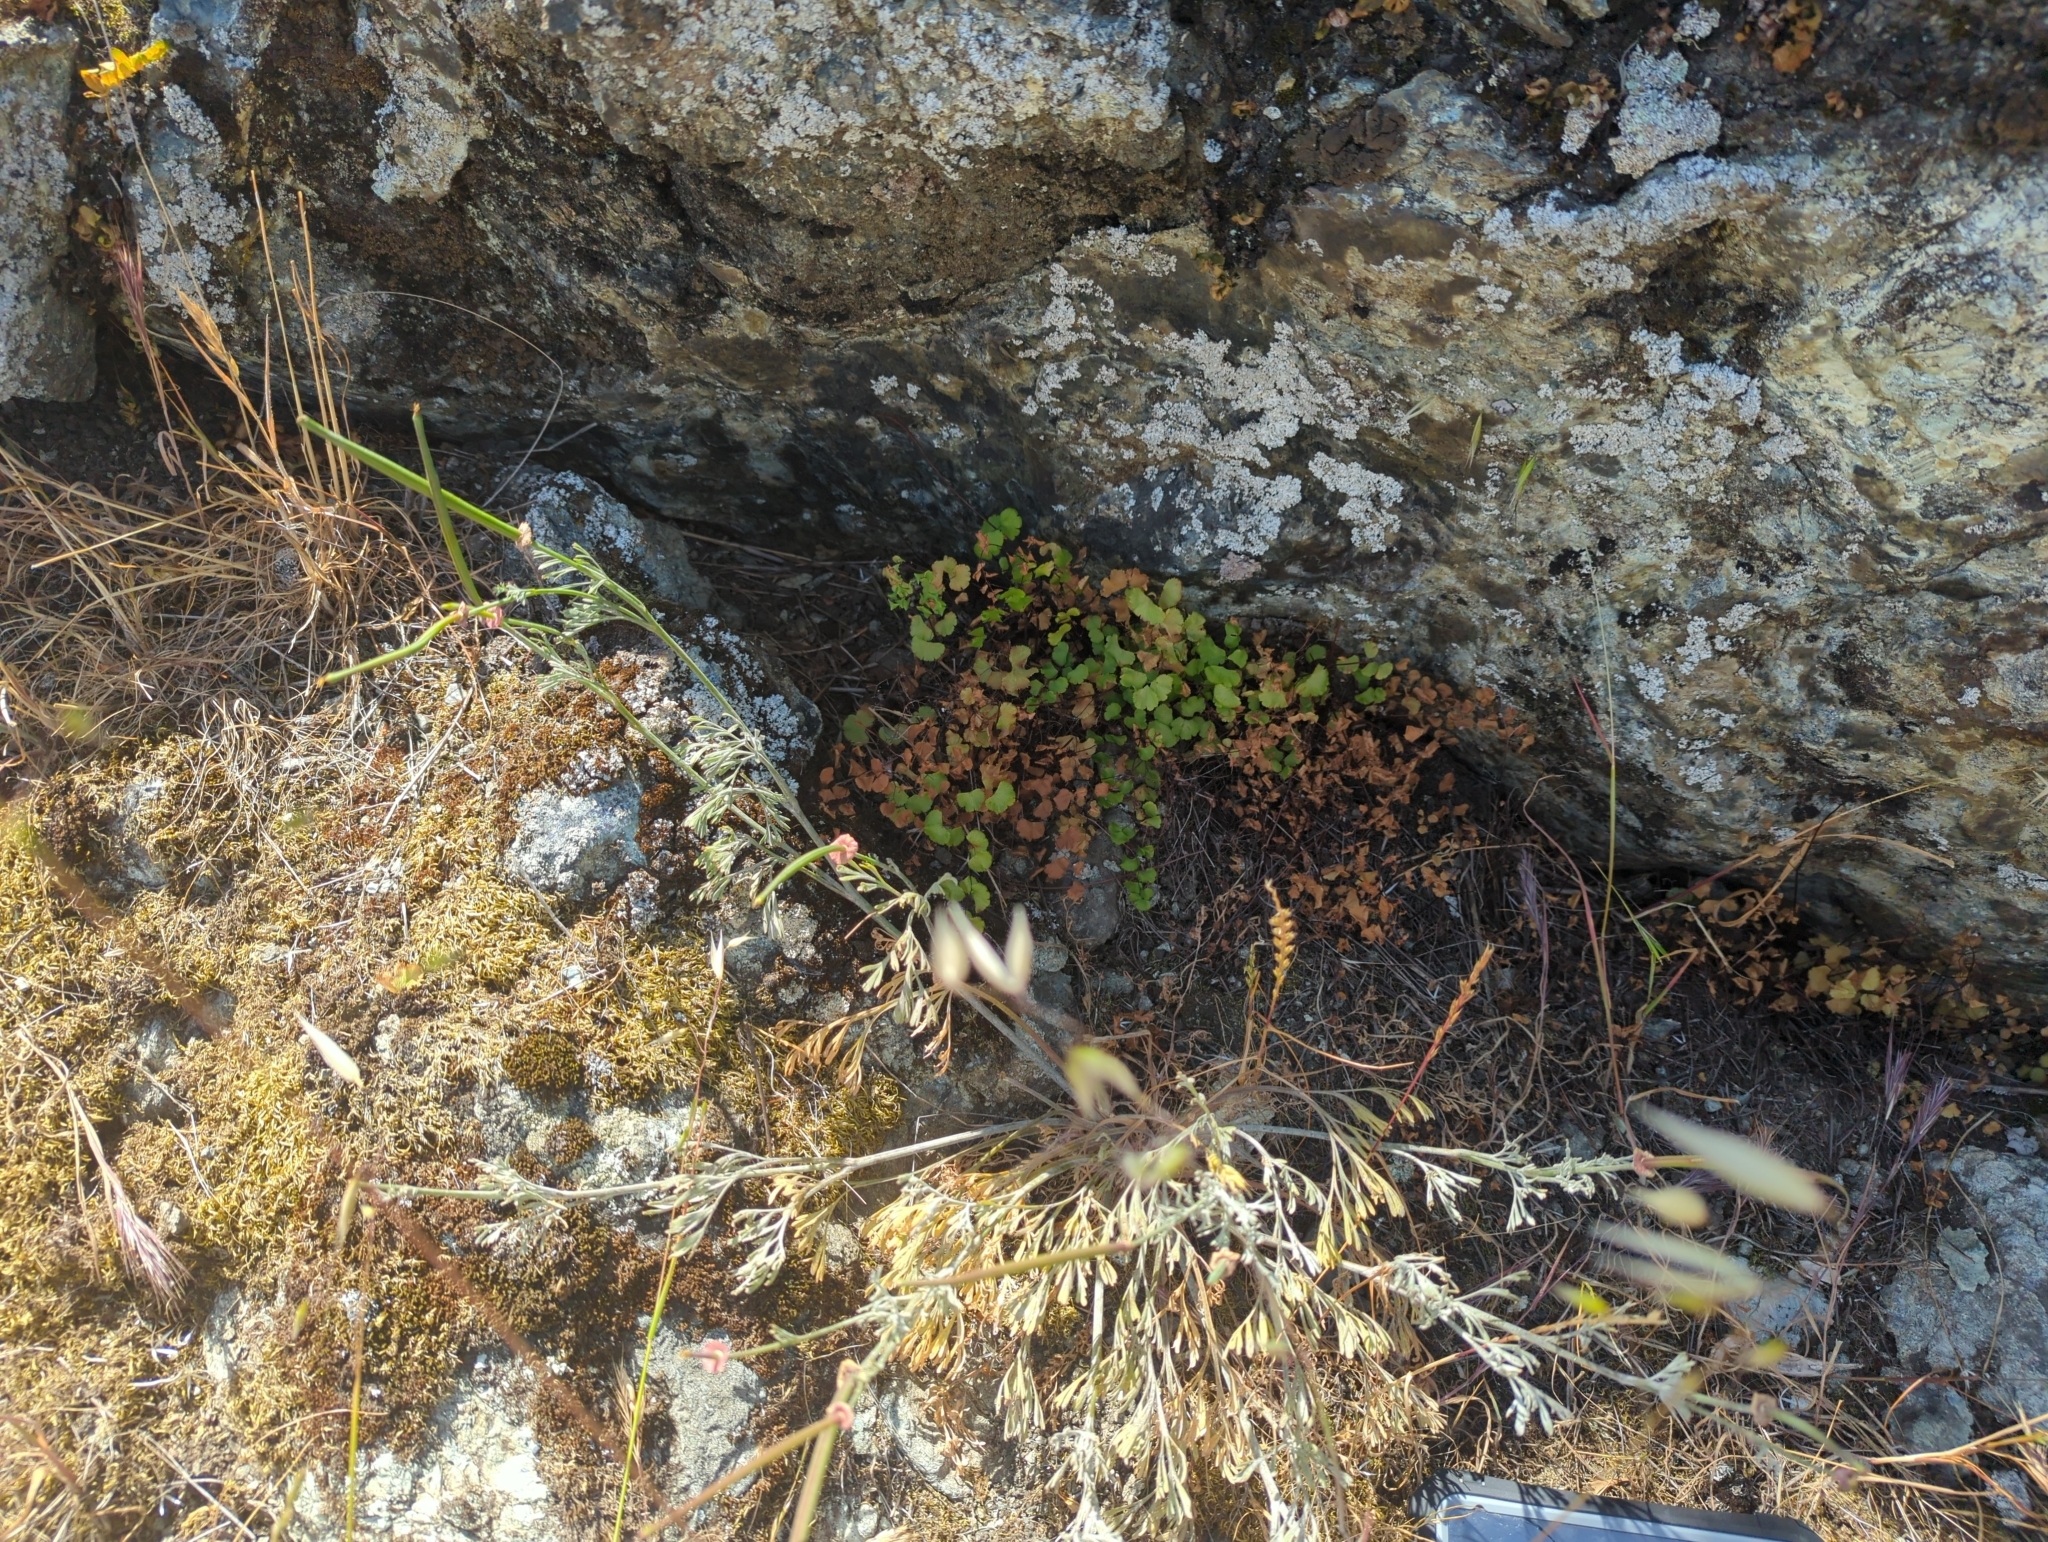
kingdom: Plantae
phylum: Tracheophyta
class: Polypodiopsida
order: Polypodiales
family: Pteridaceae
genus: Adiantum
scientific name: Adiantum jordanii
